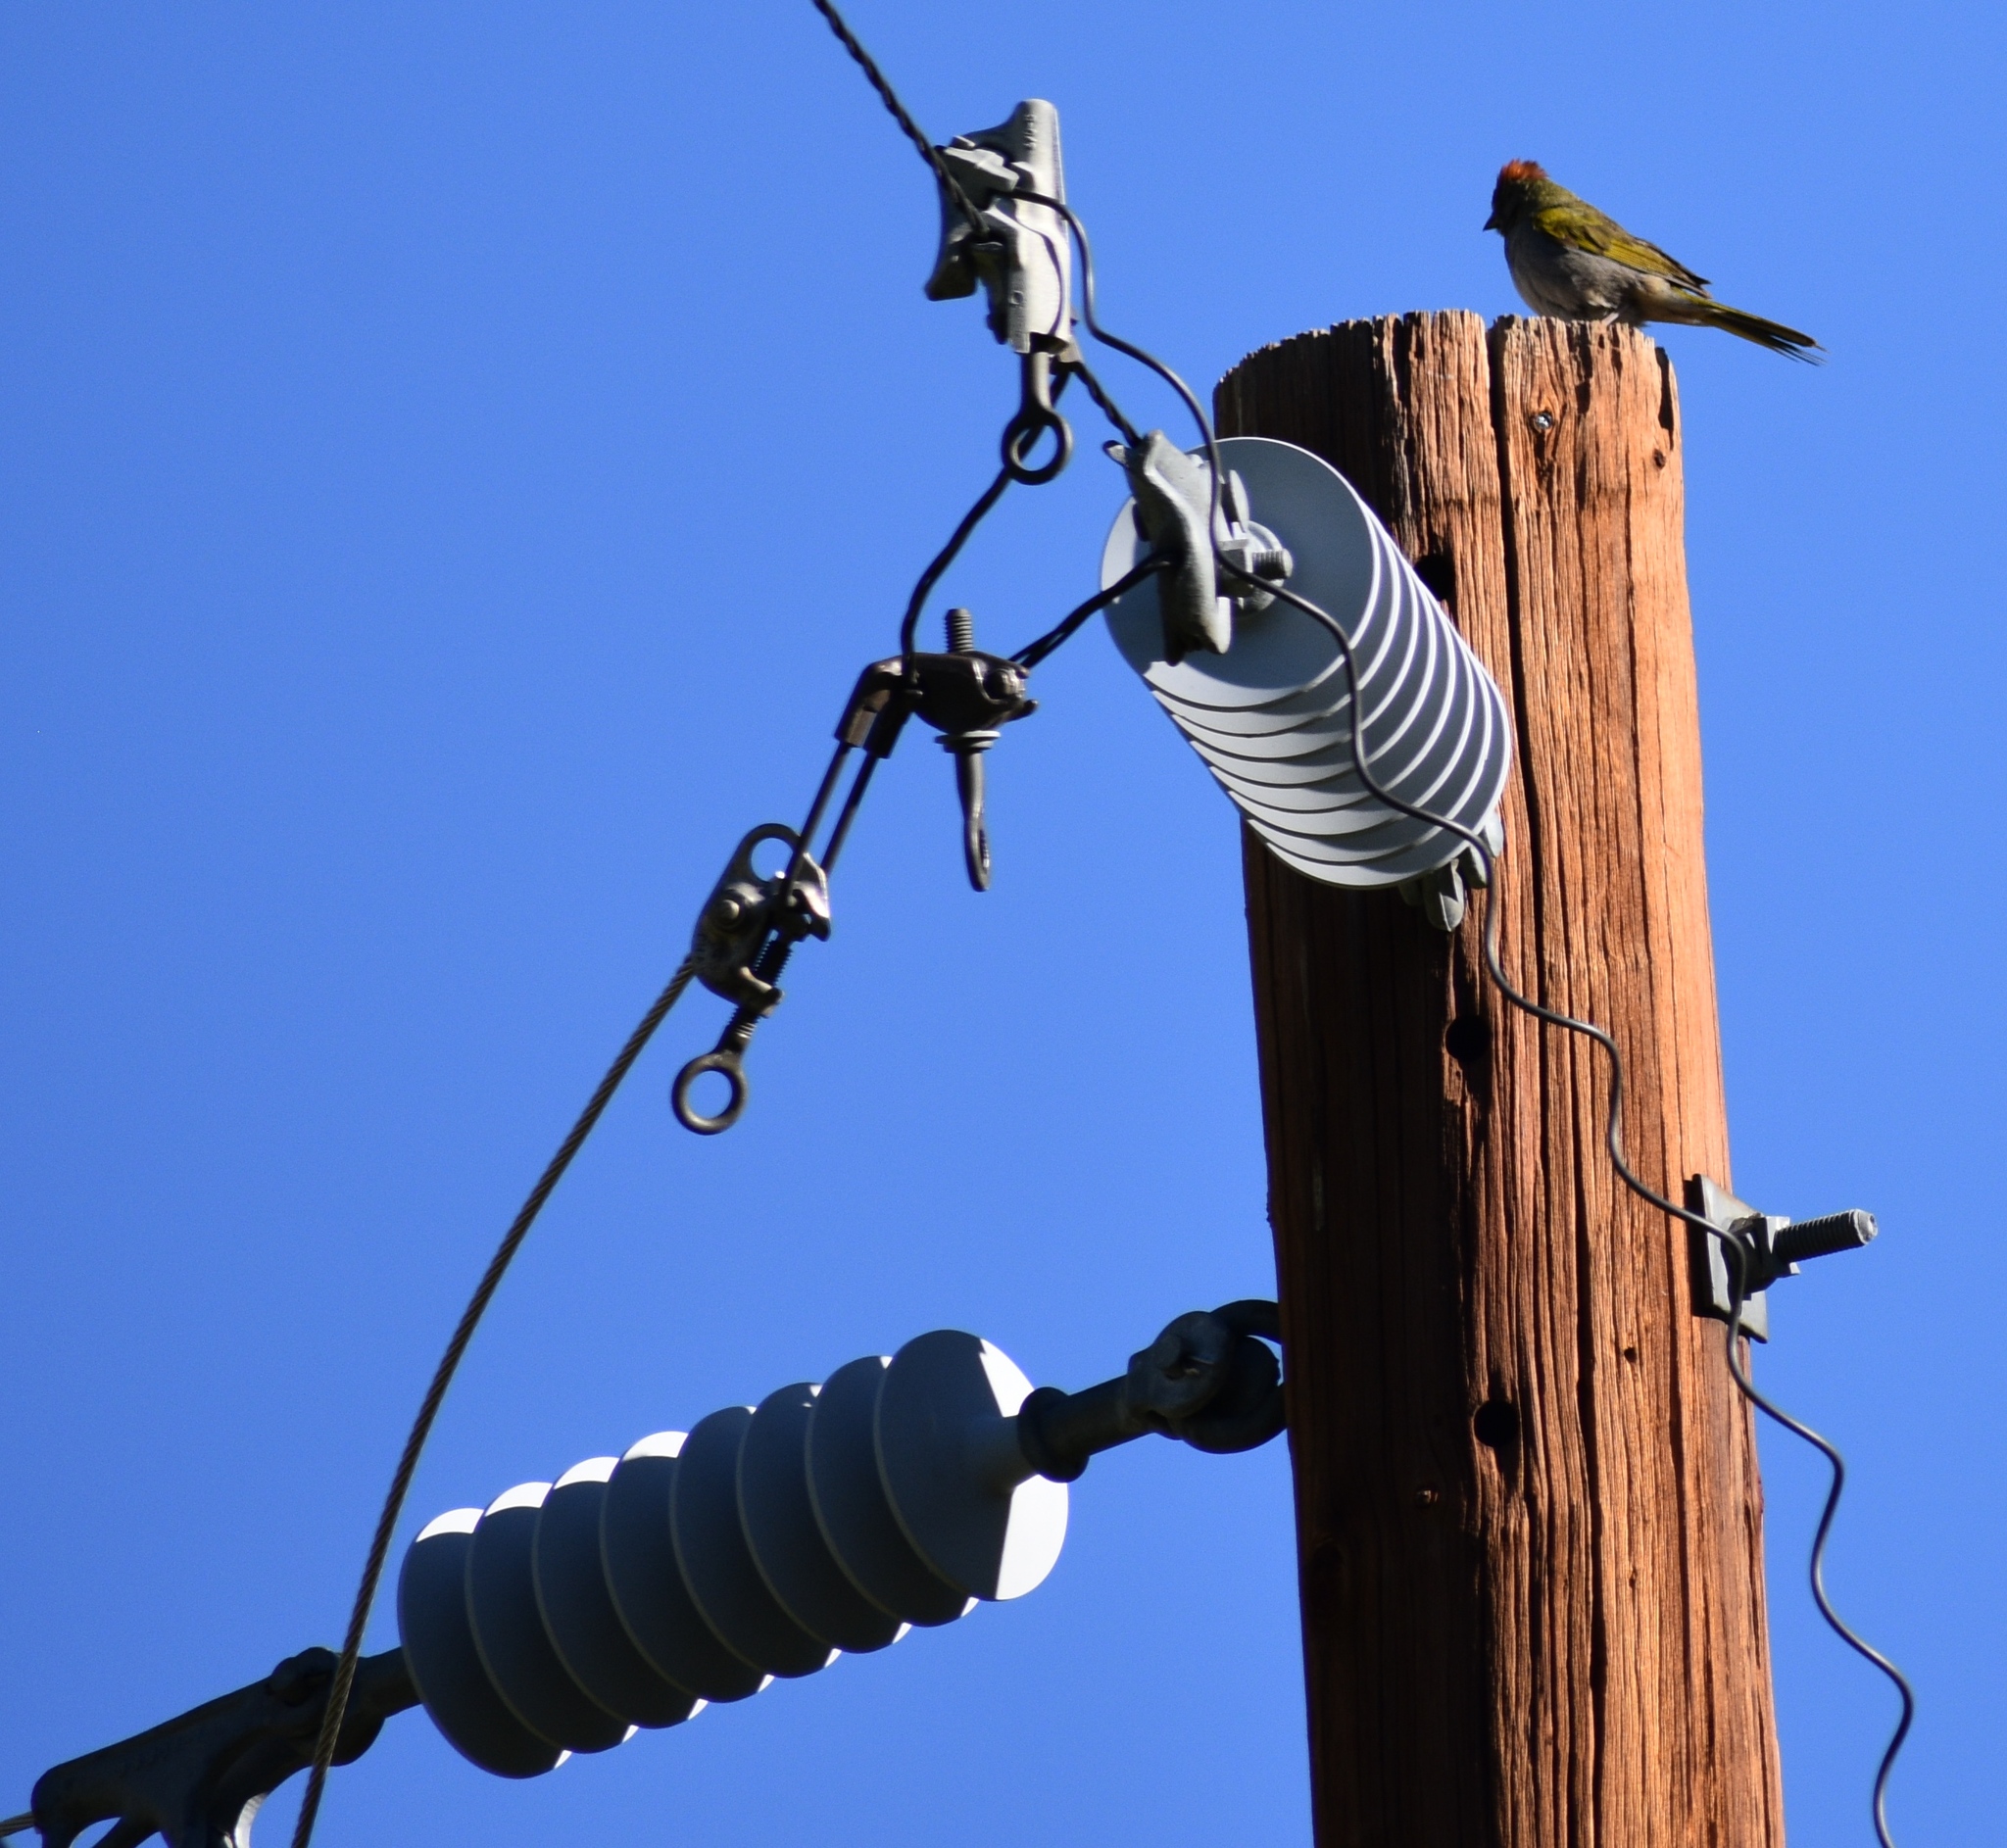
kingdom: Animalia
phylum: Chordata
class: Aves
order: Passeriformes
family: Passerellidae
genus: Pipilo
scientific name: Pipilo chlorurus
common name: Green-tailed towhee
